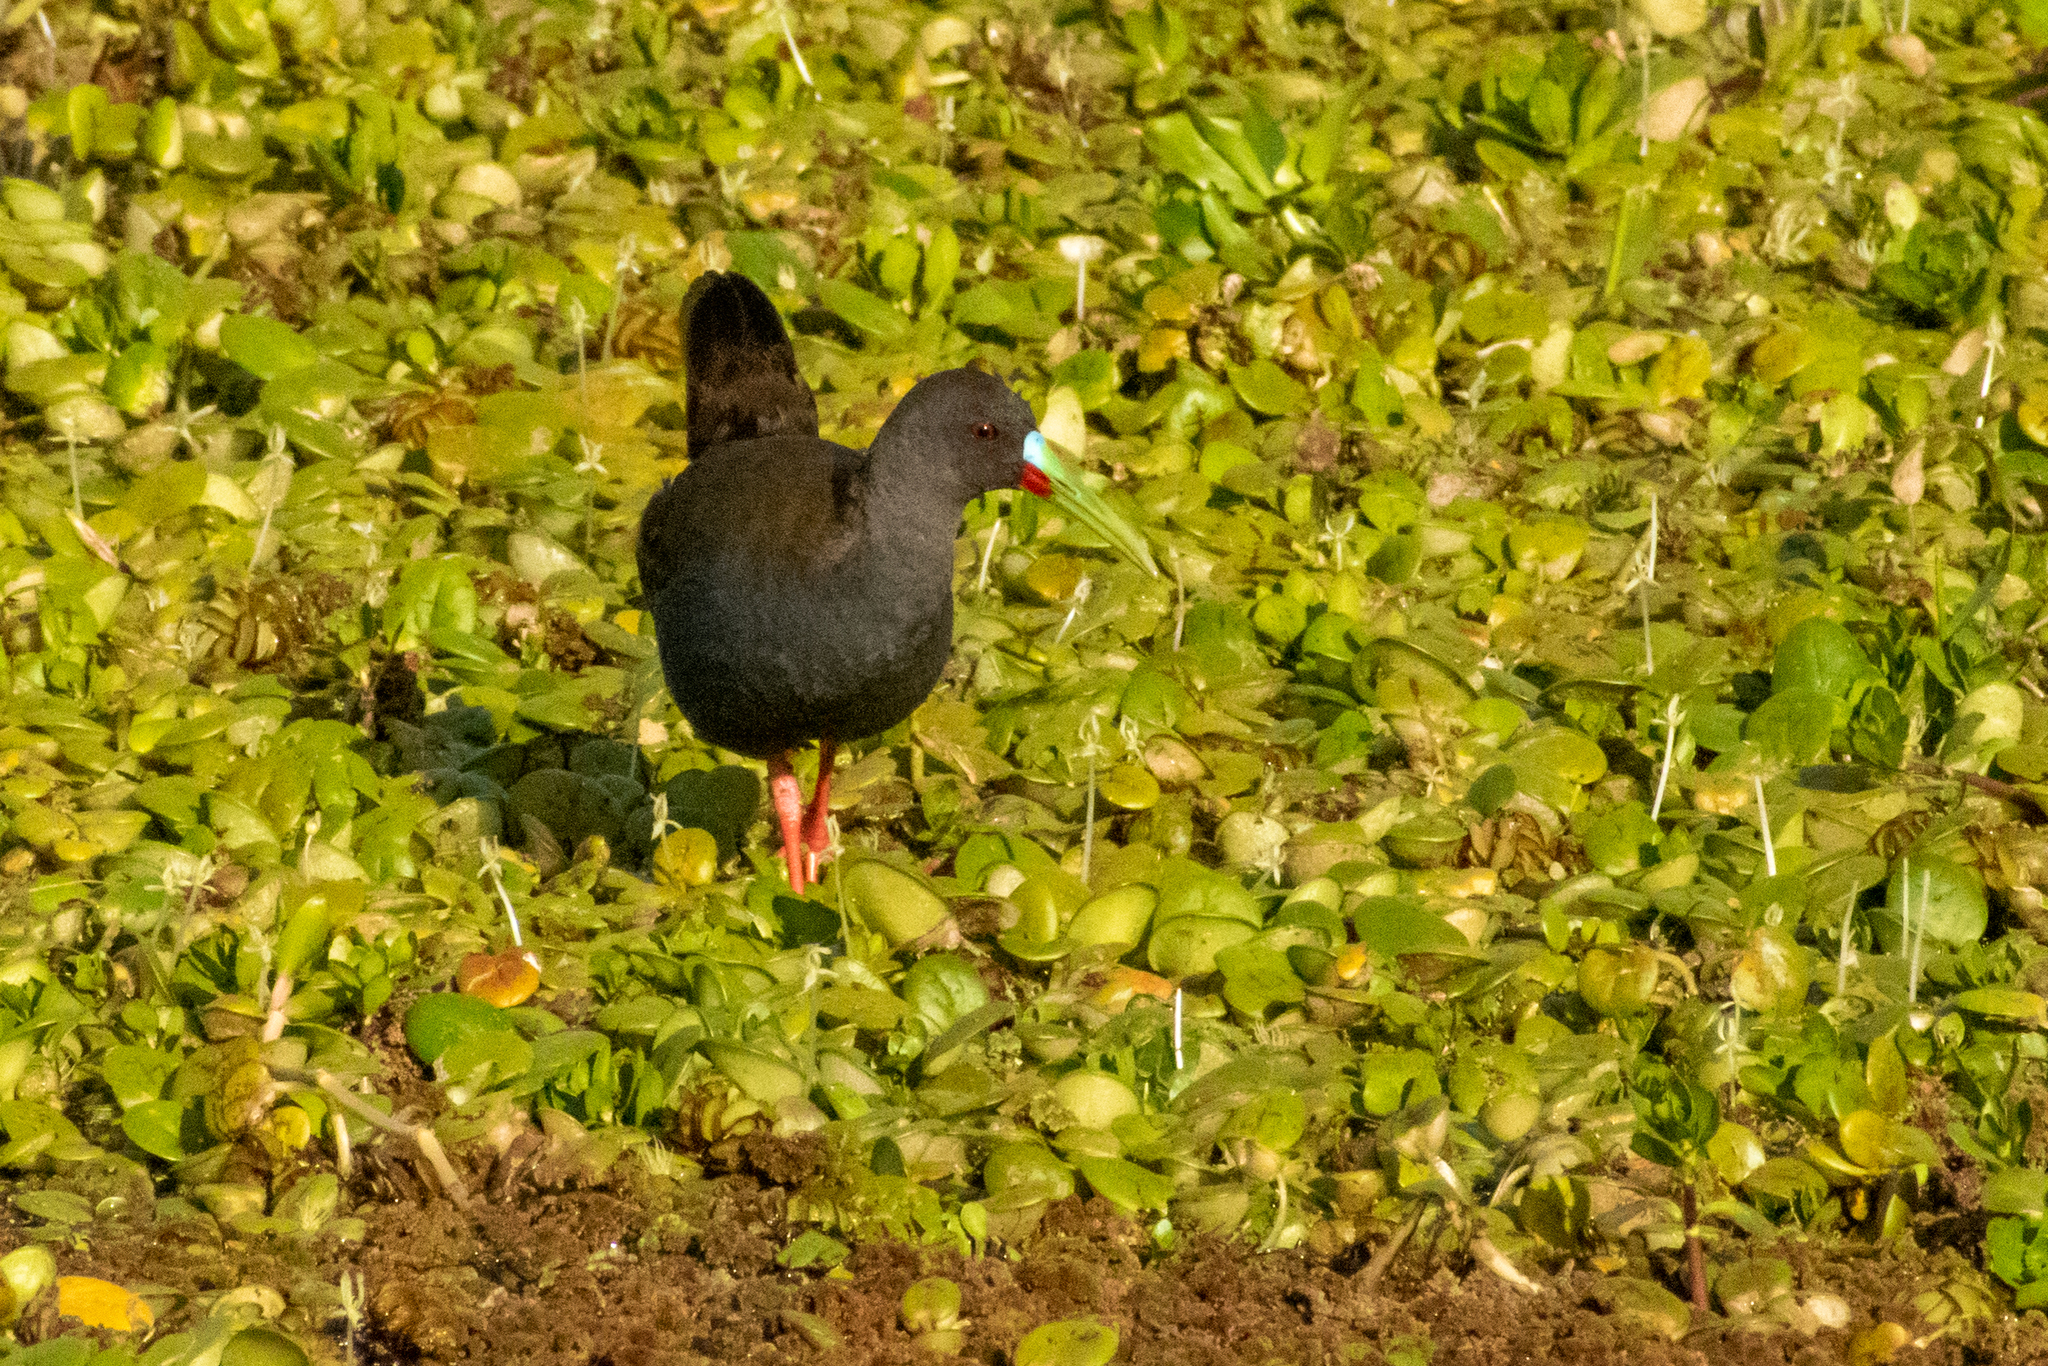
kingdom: Animalia
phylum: Chordata
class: Aves
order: Gruiformes
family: Rallidae
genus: Pardirallus
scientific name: Pardirallus sanguinolentus
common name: Plumbeous rail
